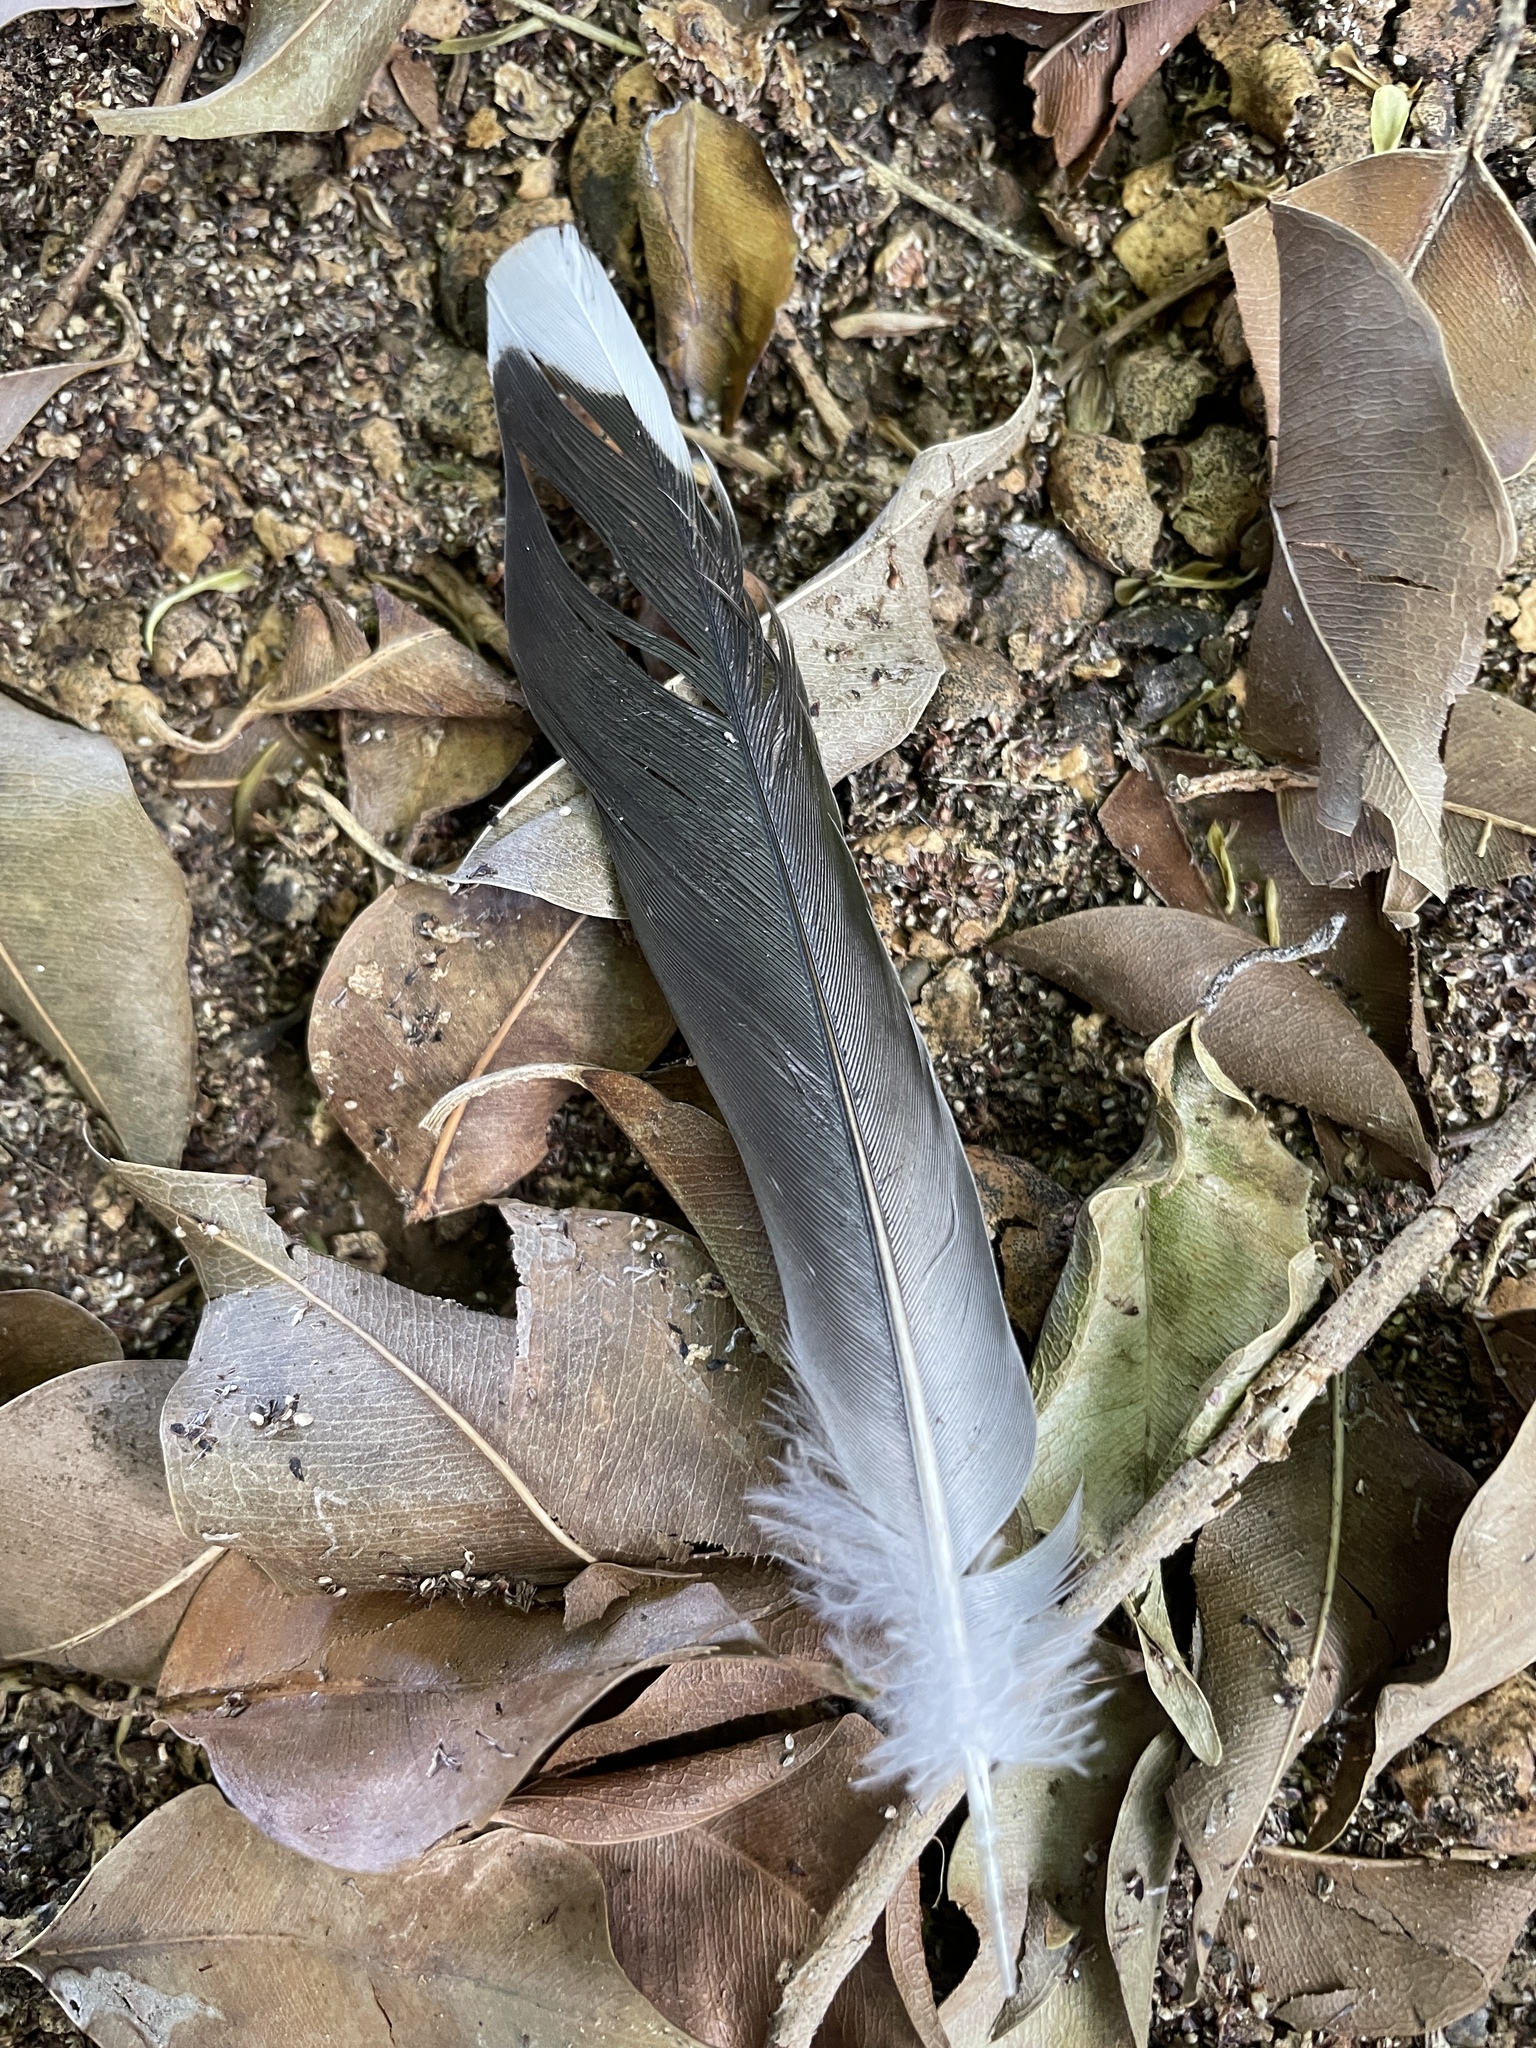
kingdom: Animalia
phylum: Chordata
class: Aves
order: Columbiformes
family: Columbidae
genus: Geopelia
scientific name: Geopelia striata
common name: Zebra dove
